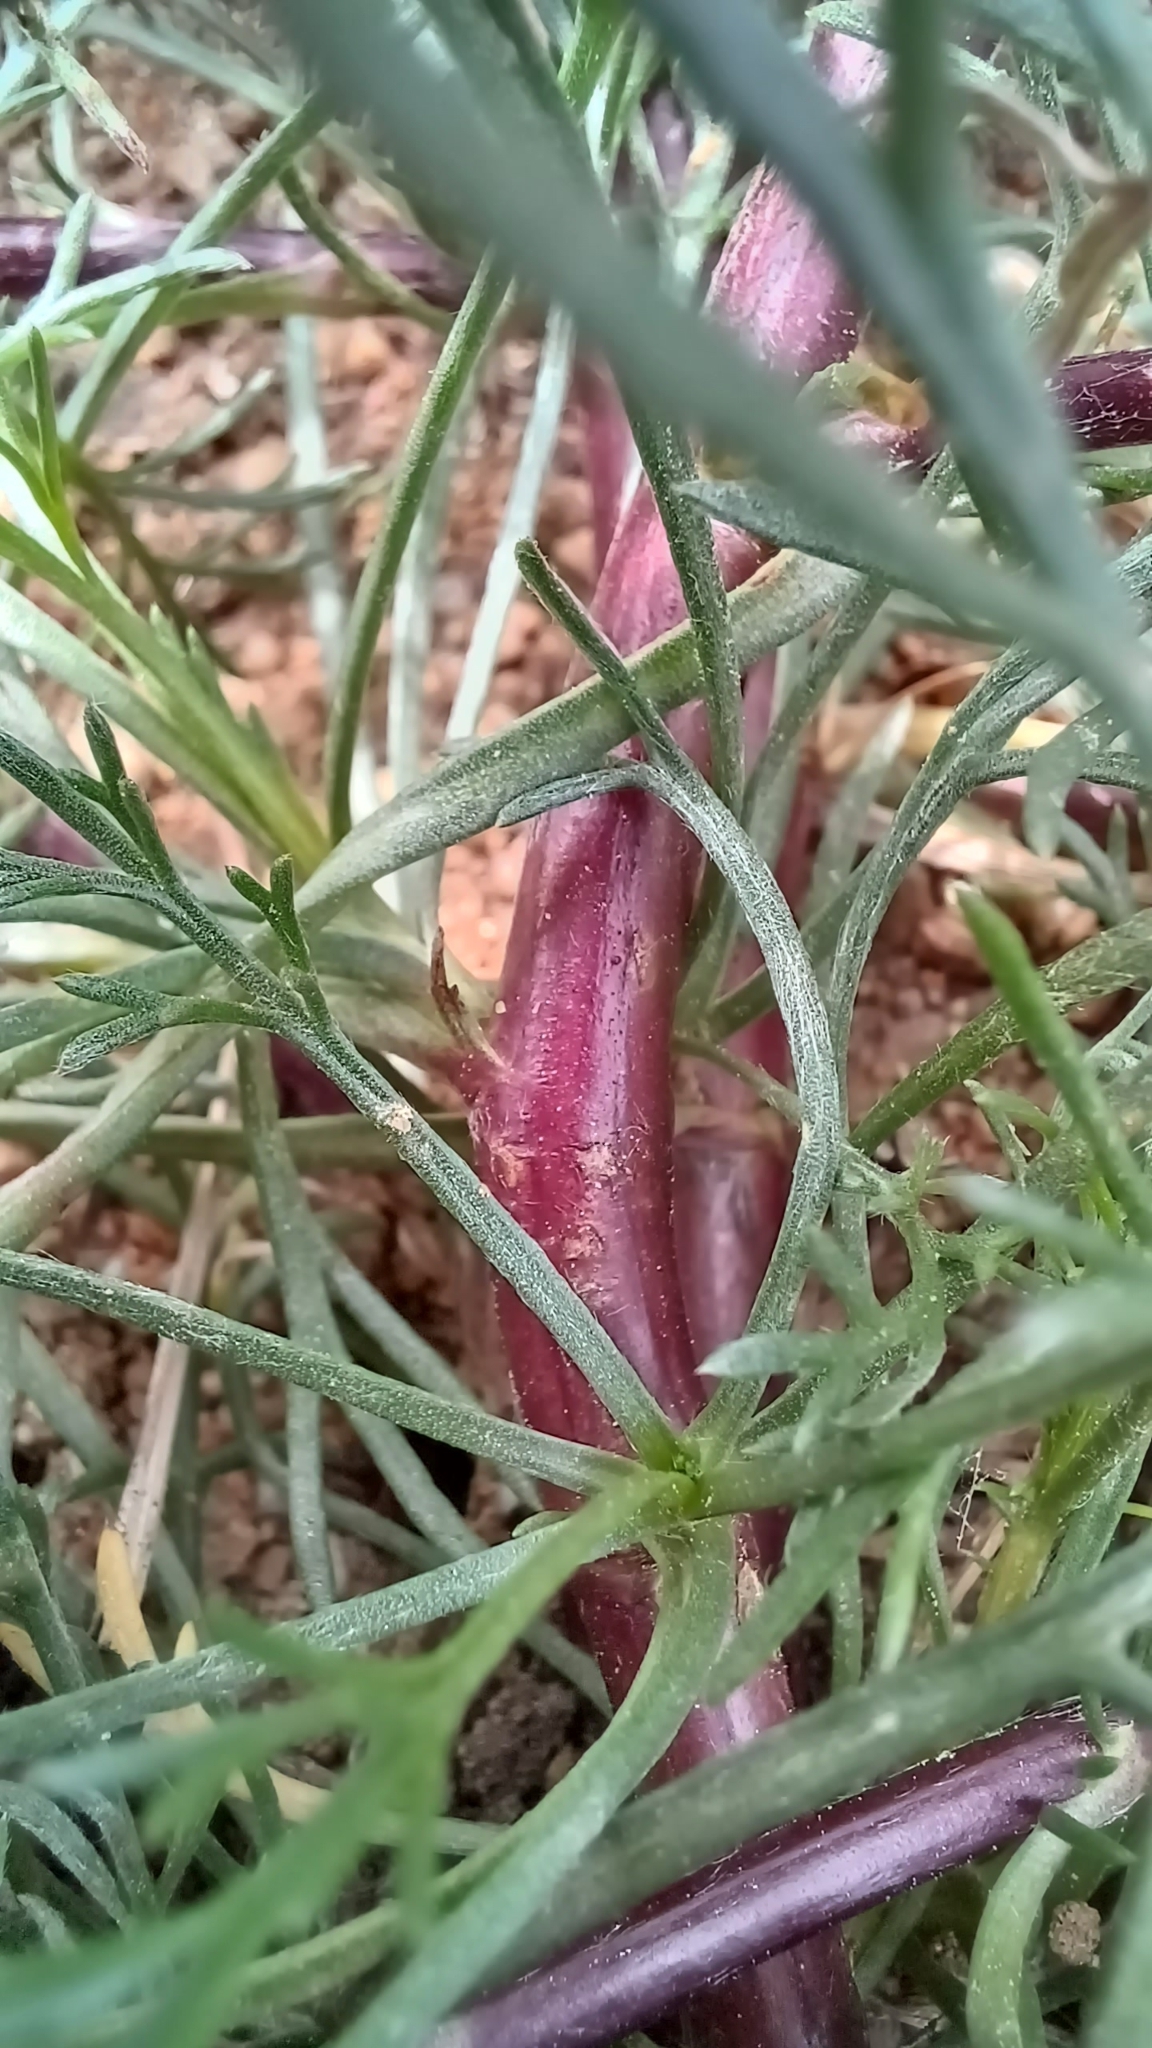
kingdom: Plantae
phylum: Tracheophyta
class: Magnoliopsida
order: Asterales
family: Asteraceae
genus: Artemisia
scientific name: Artemisia campestris
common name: Field wormwood
